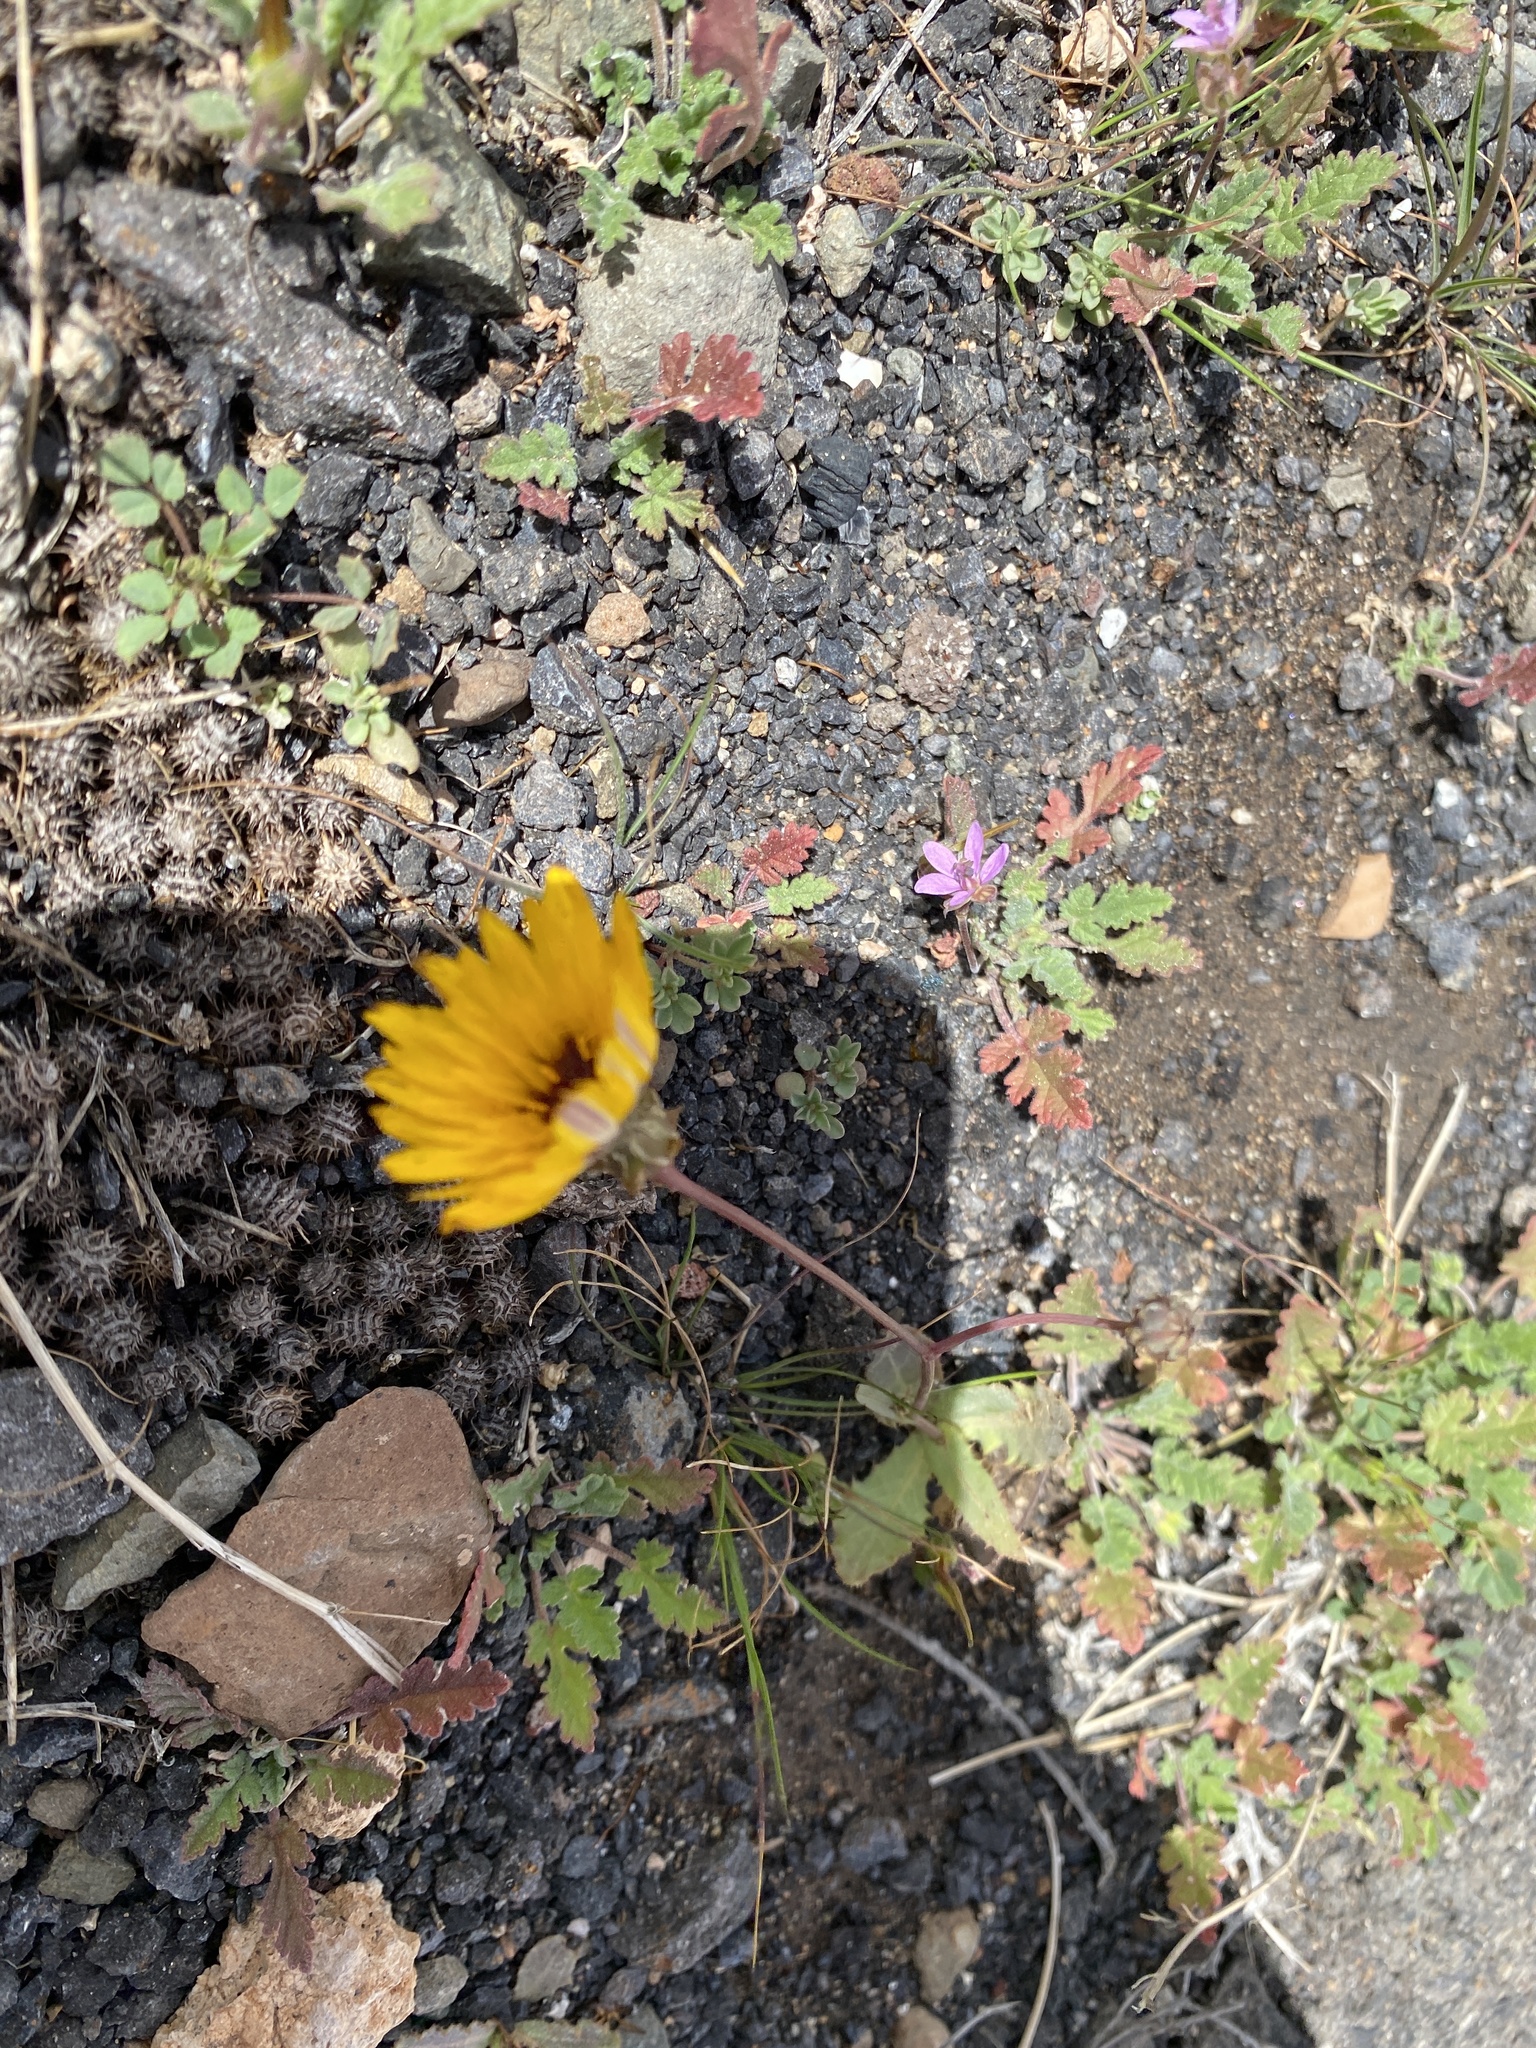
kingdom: Plantae
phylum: Tracheophyta
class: Magnoliopsida
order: Asterales
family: Asteraceae
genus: Reichardia
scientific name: Reichardia tingitana
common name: Reichardia
